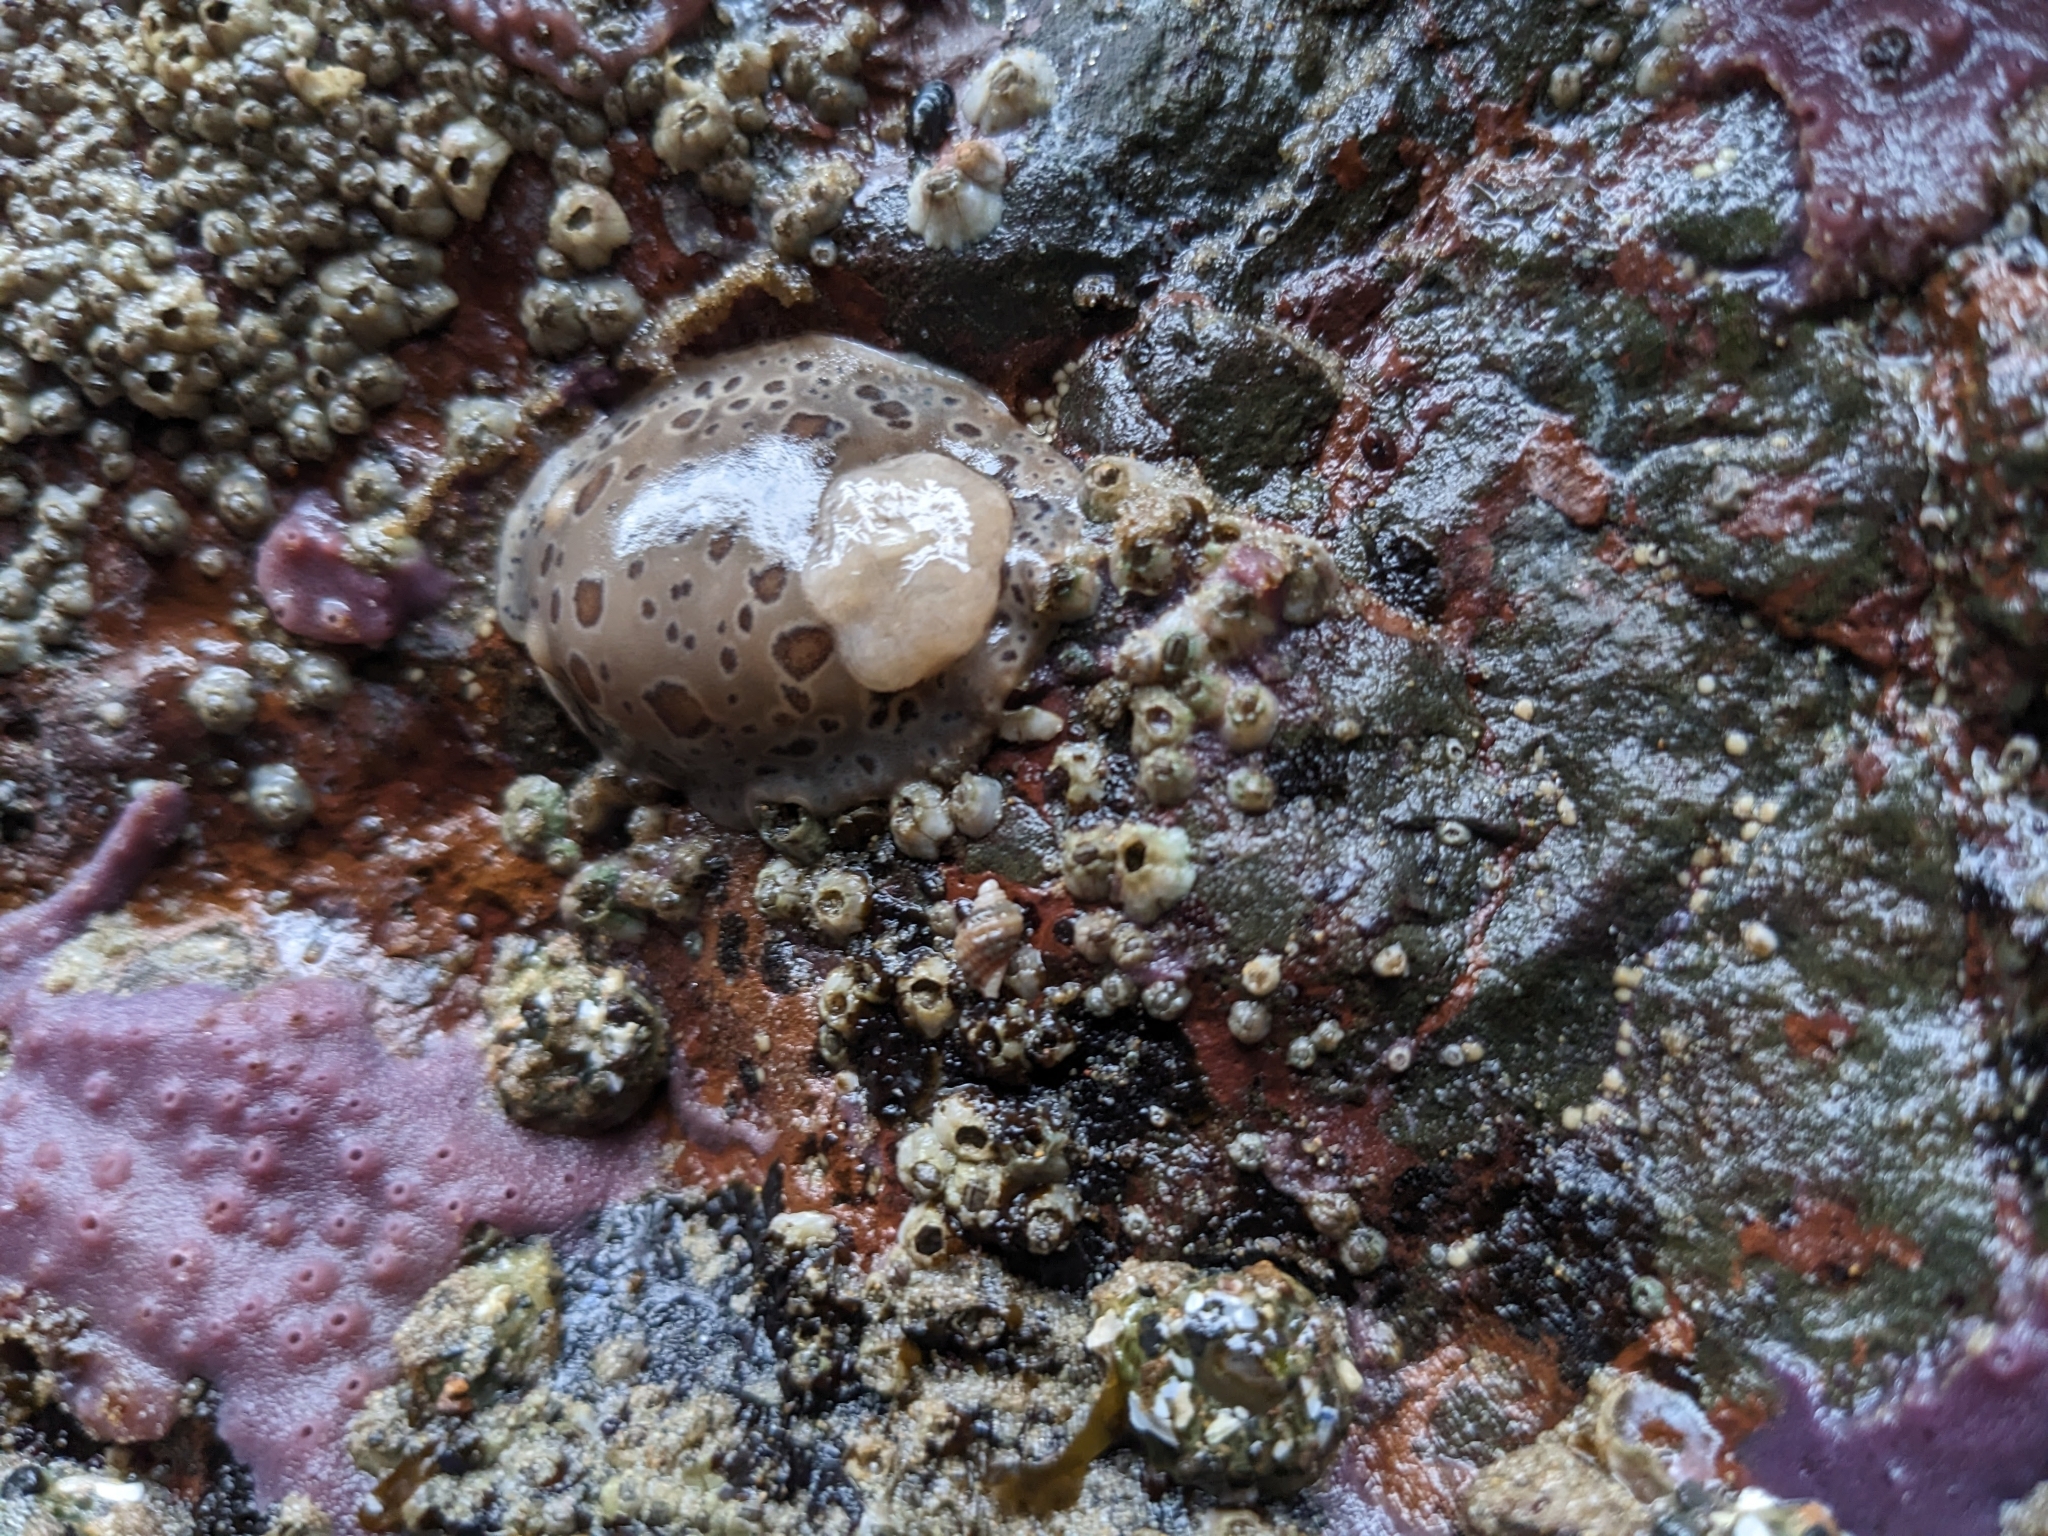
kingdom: Animalia
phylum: Mollusca
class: Gastropoda
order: Nudibranchia
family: Discodorididae
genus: Diaulula
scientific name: Diaulula odonoghuei
